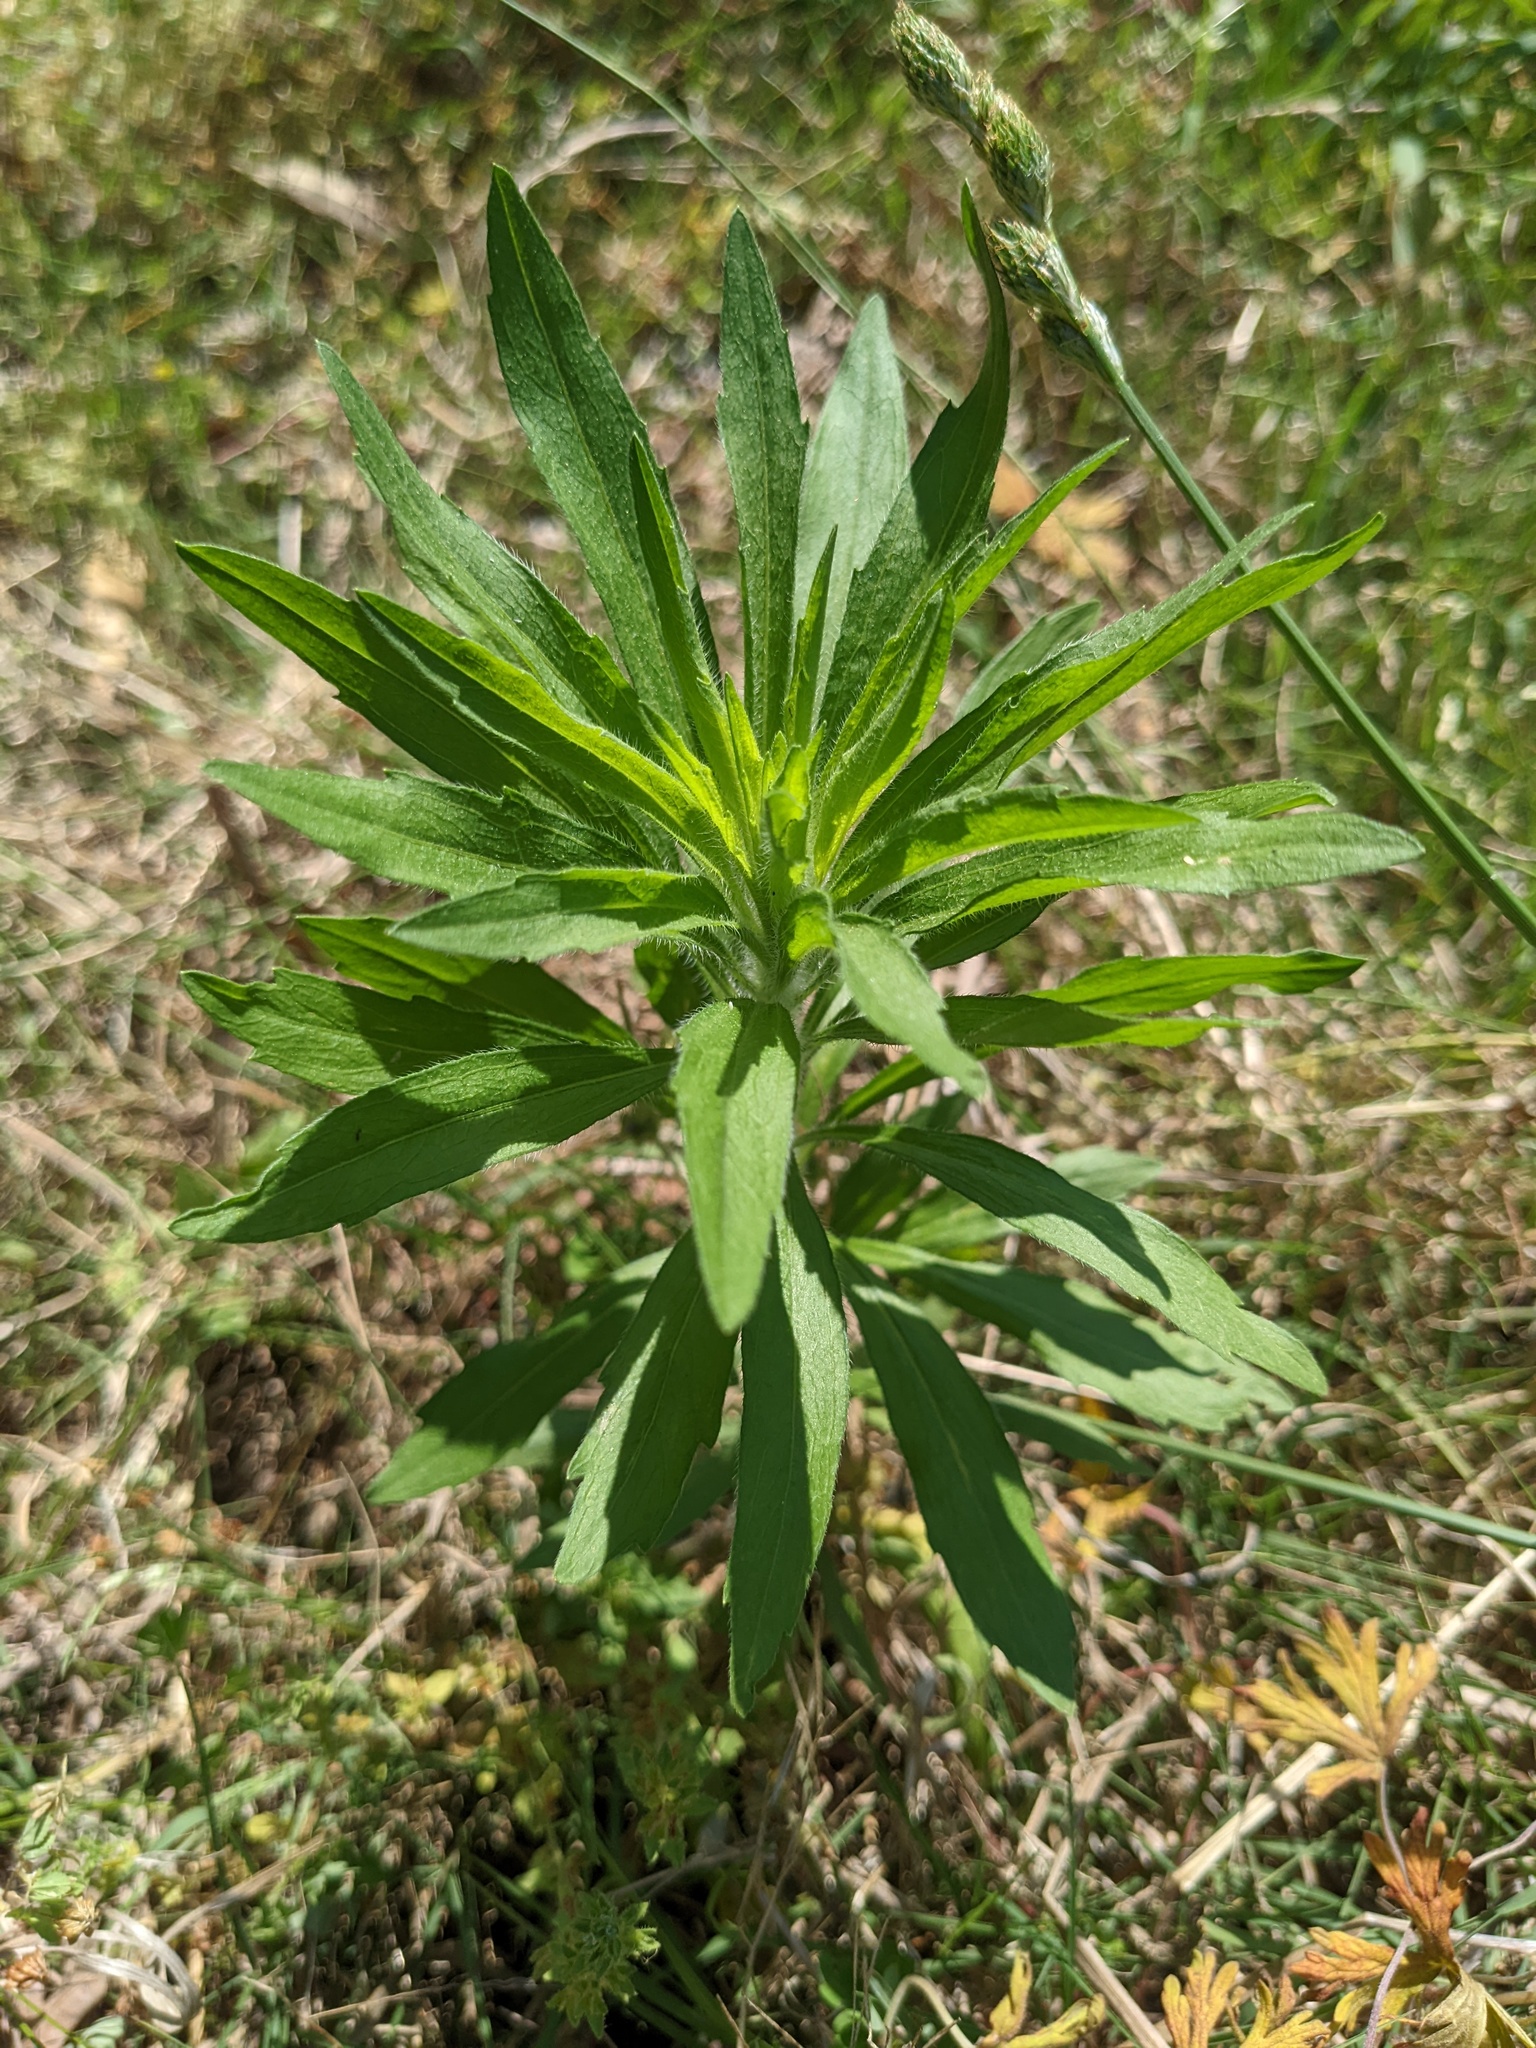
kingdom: Plantae
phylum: Tracheophyta
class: Magnoliopsida
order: Asterales
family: Asteraceae
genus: Erigeron
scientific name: Erigeron canadensis
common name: Canadian fleabane
